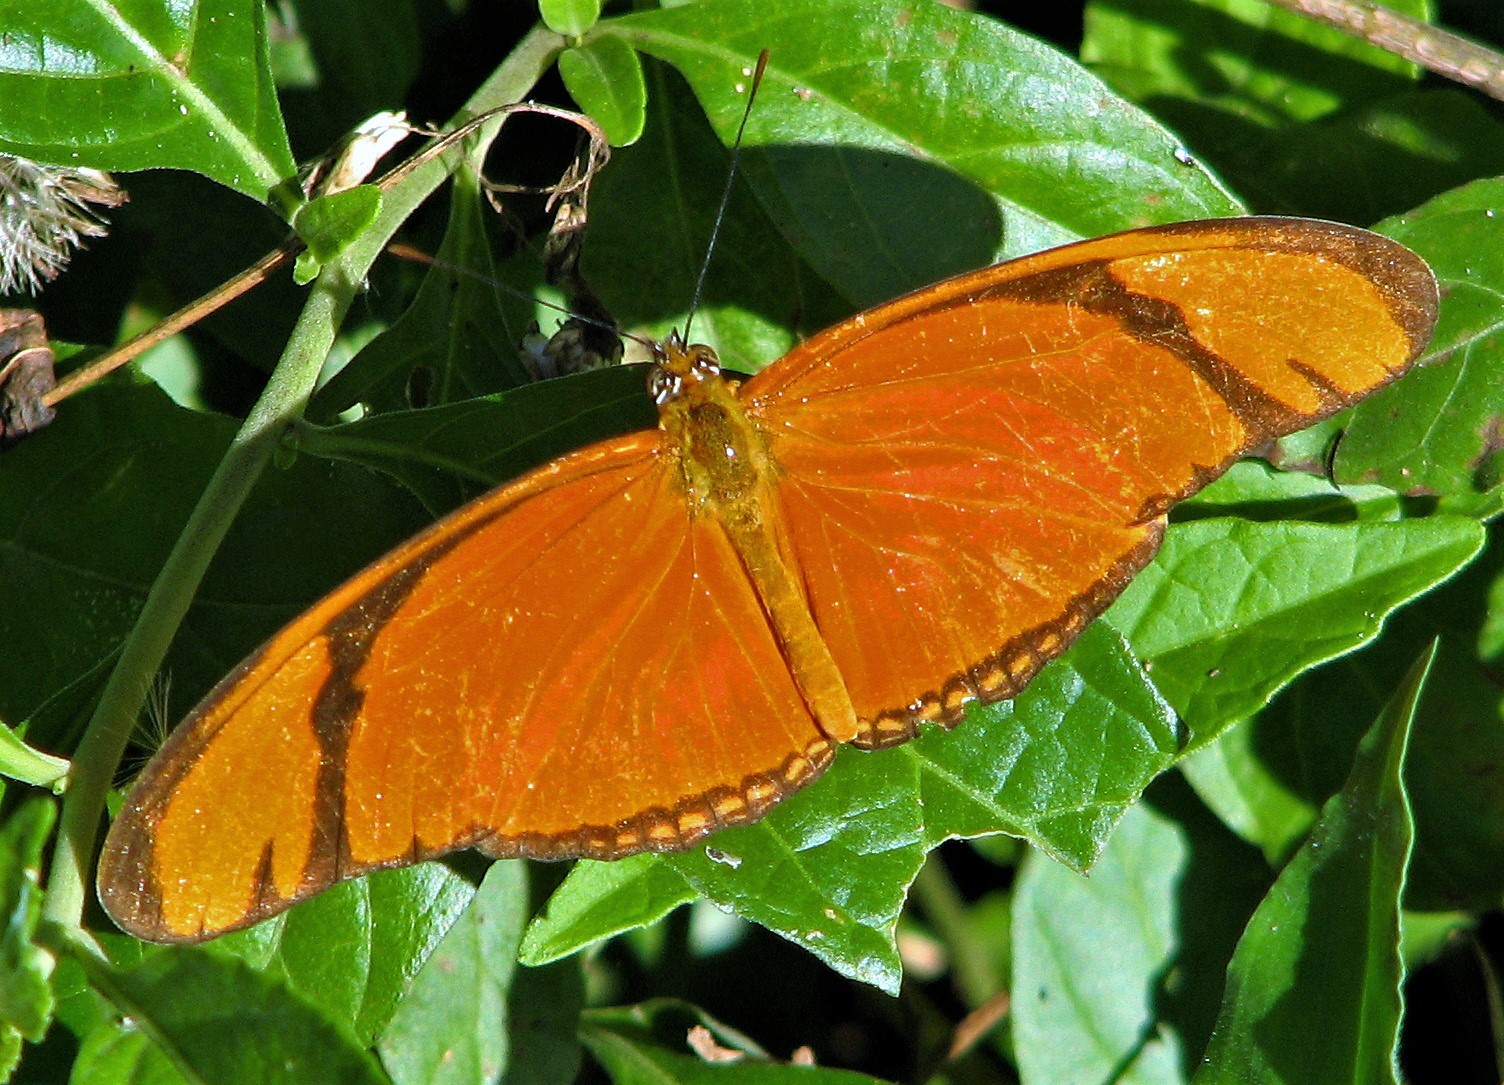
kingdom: Animalia
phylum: Arthropoda
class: Insecta
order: Lepidoptera
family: Nymphalidae
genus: Dryas
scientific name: Dryas iulia
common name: Flambeau
